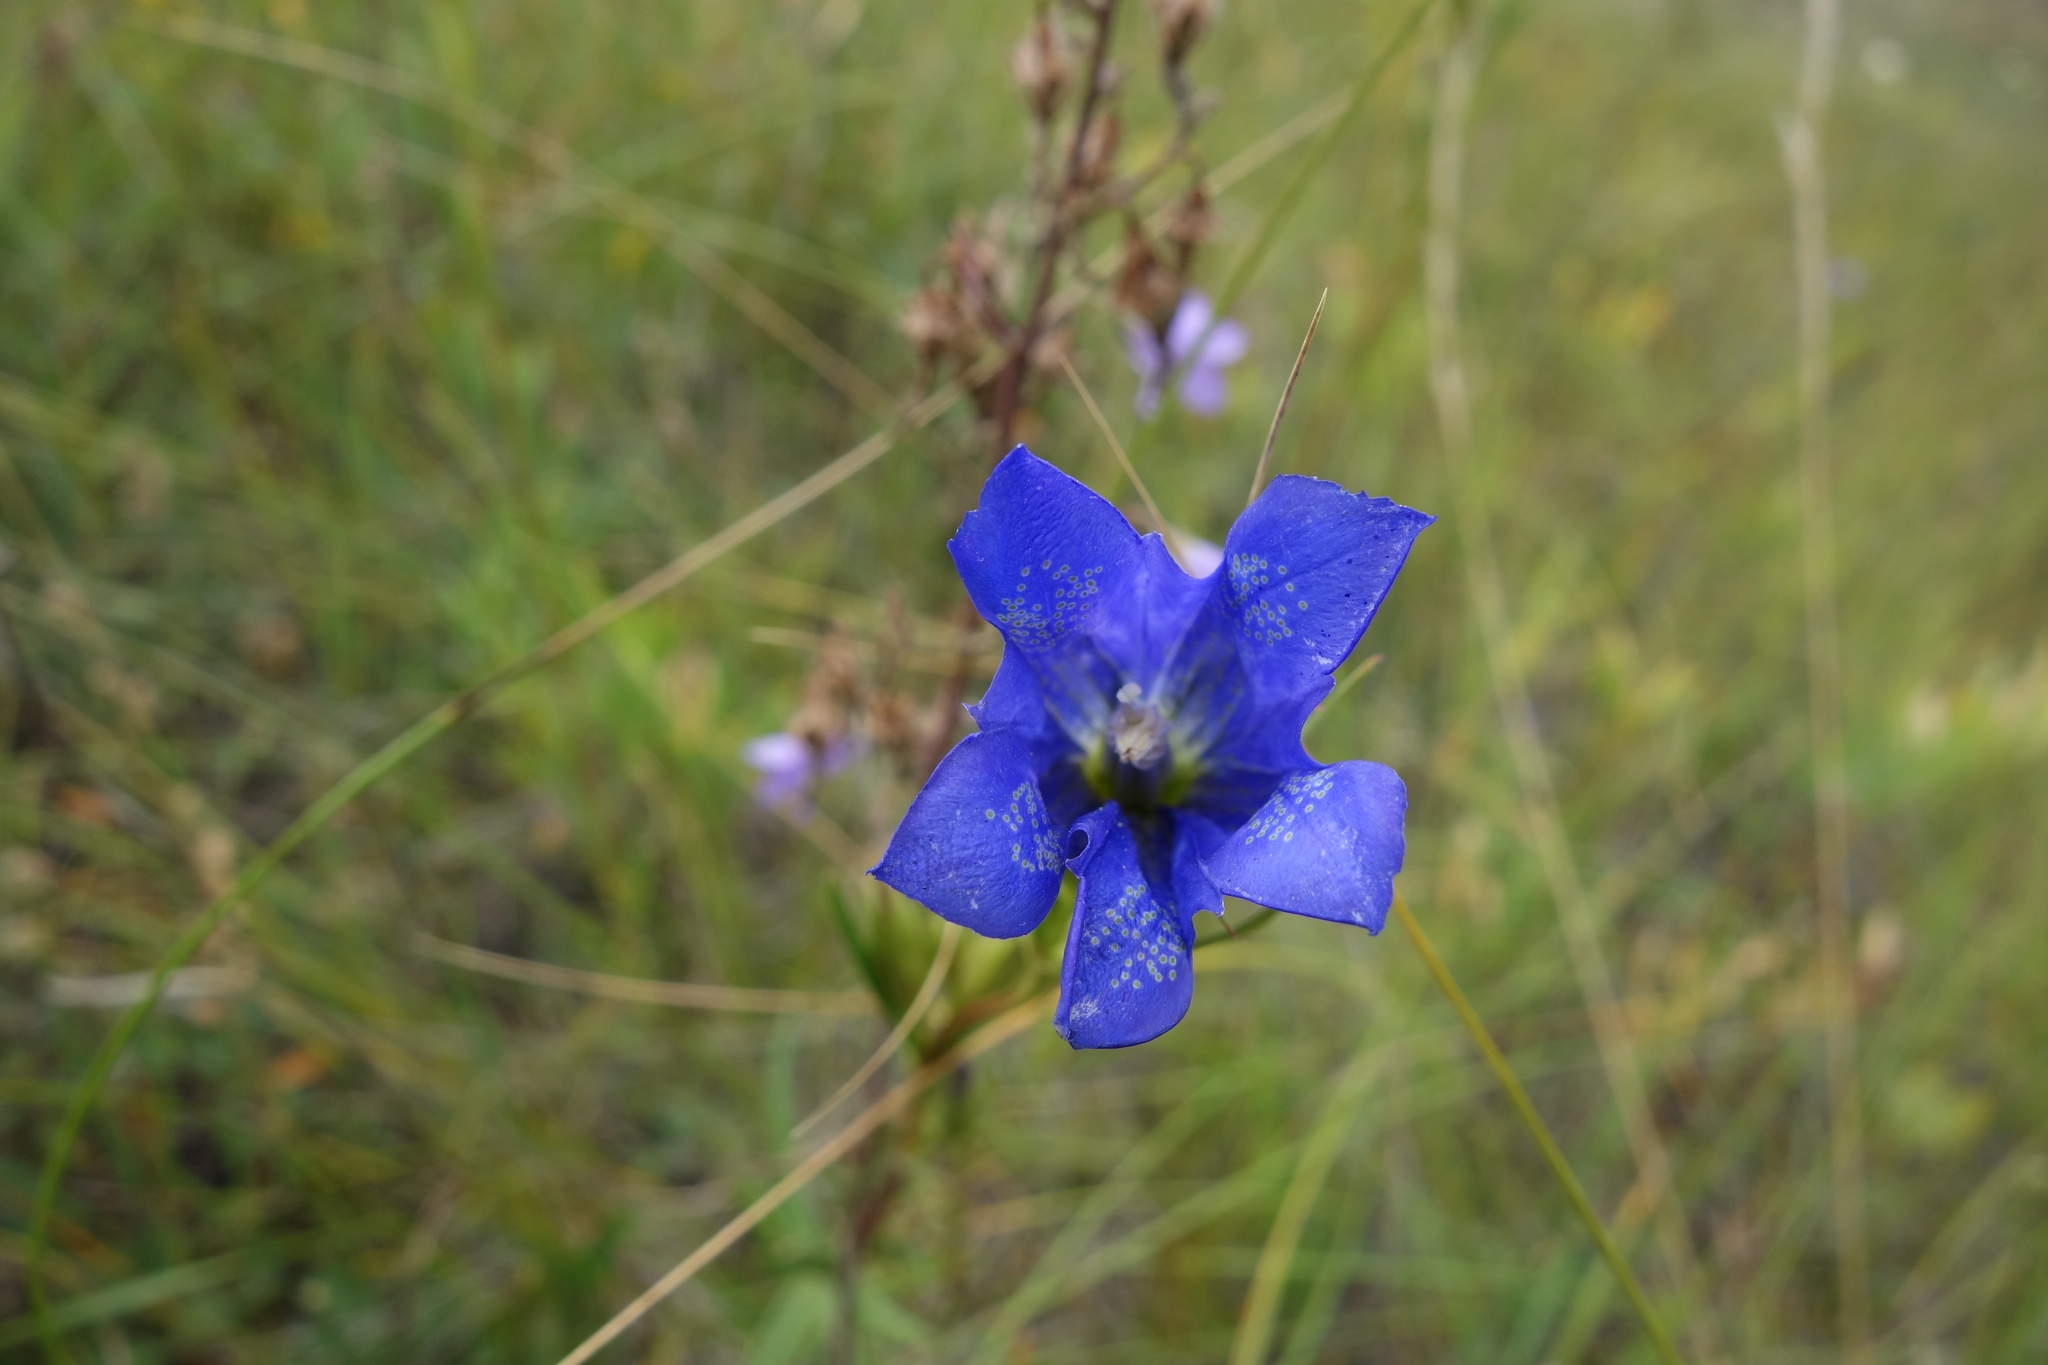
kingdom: Plantae
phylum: Tracheophyta
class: Magnoliopsida
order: Gentianales
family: Gentianaceae
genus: Gentiana
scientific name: Gentiana pneumonanthe
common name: Marsh gentian
